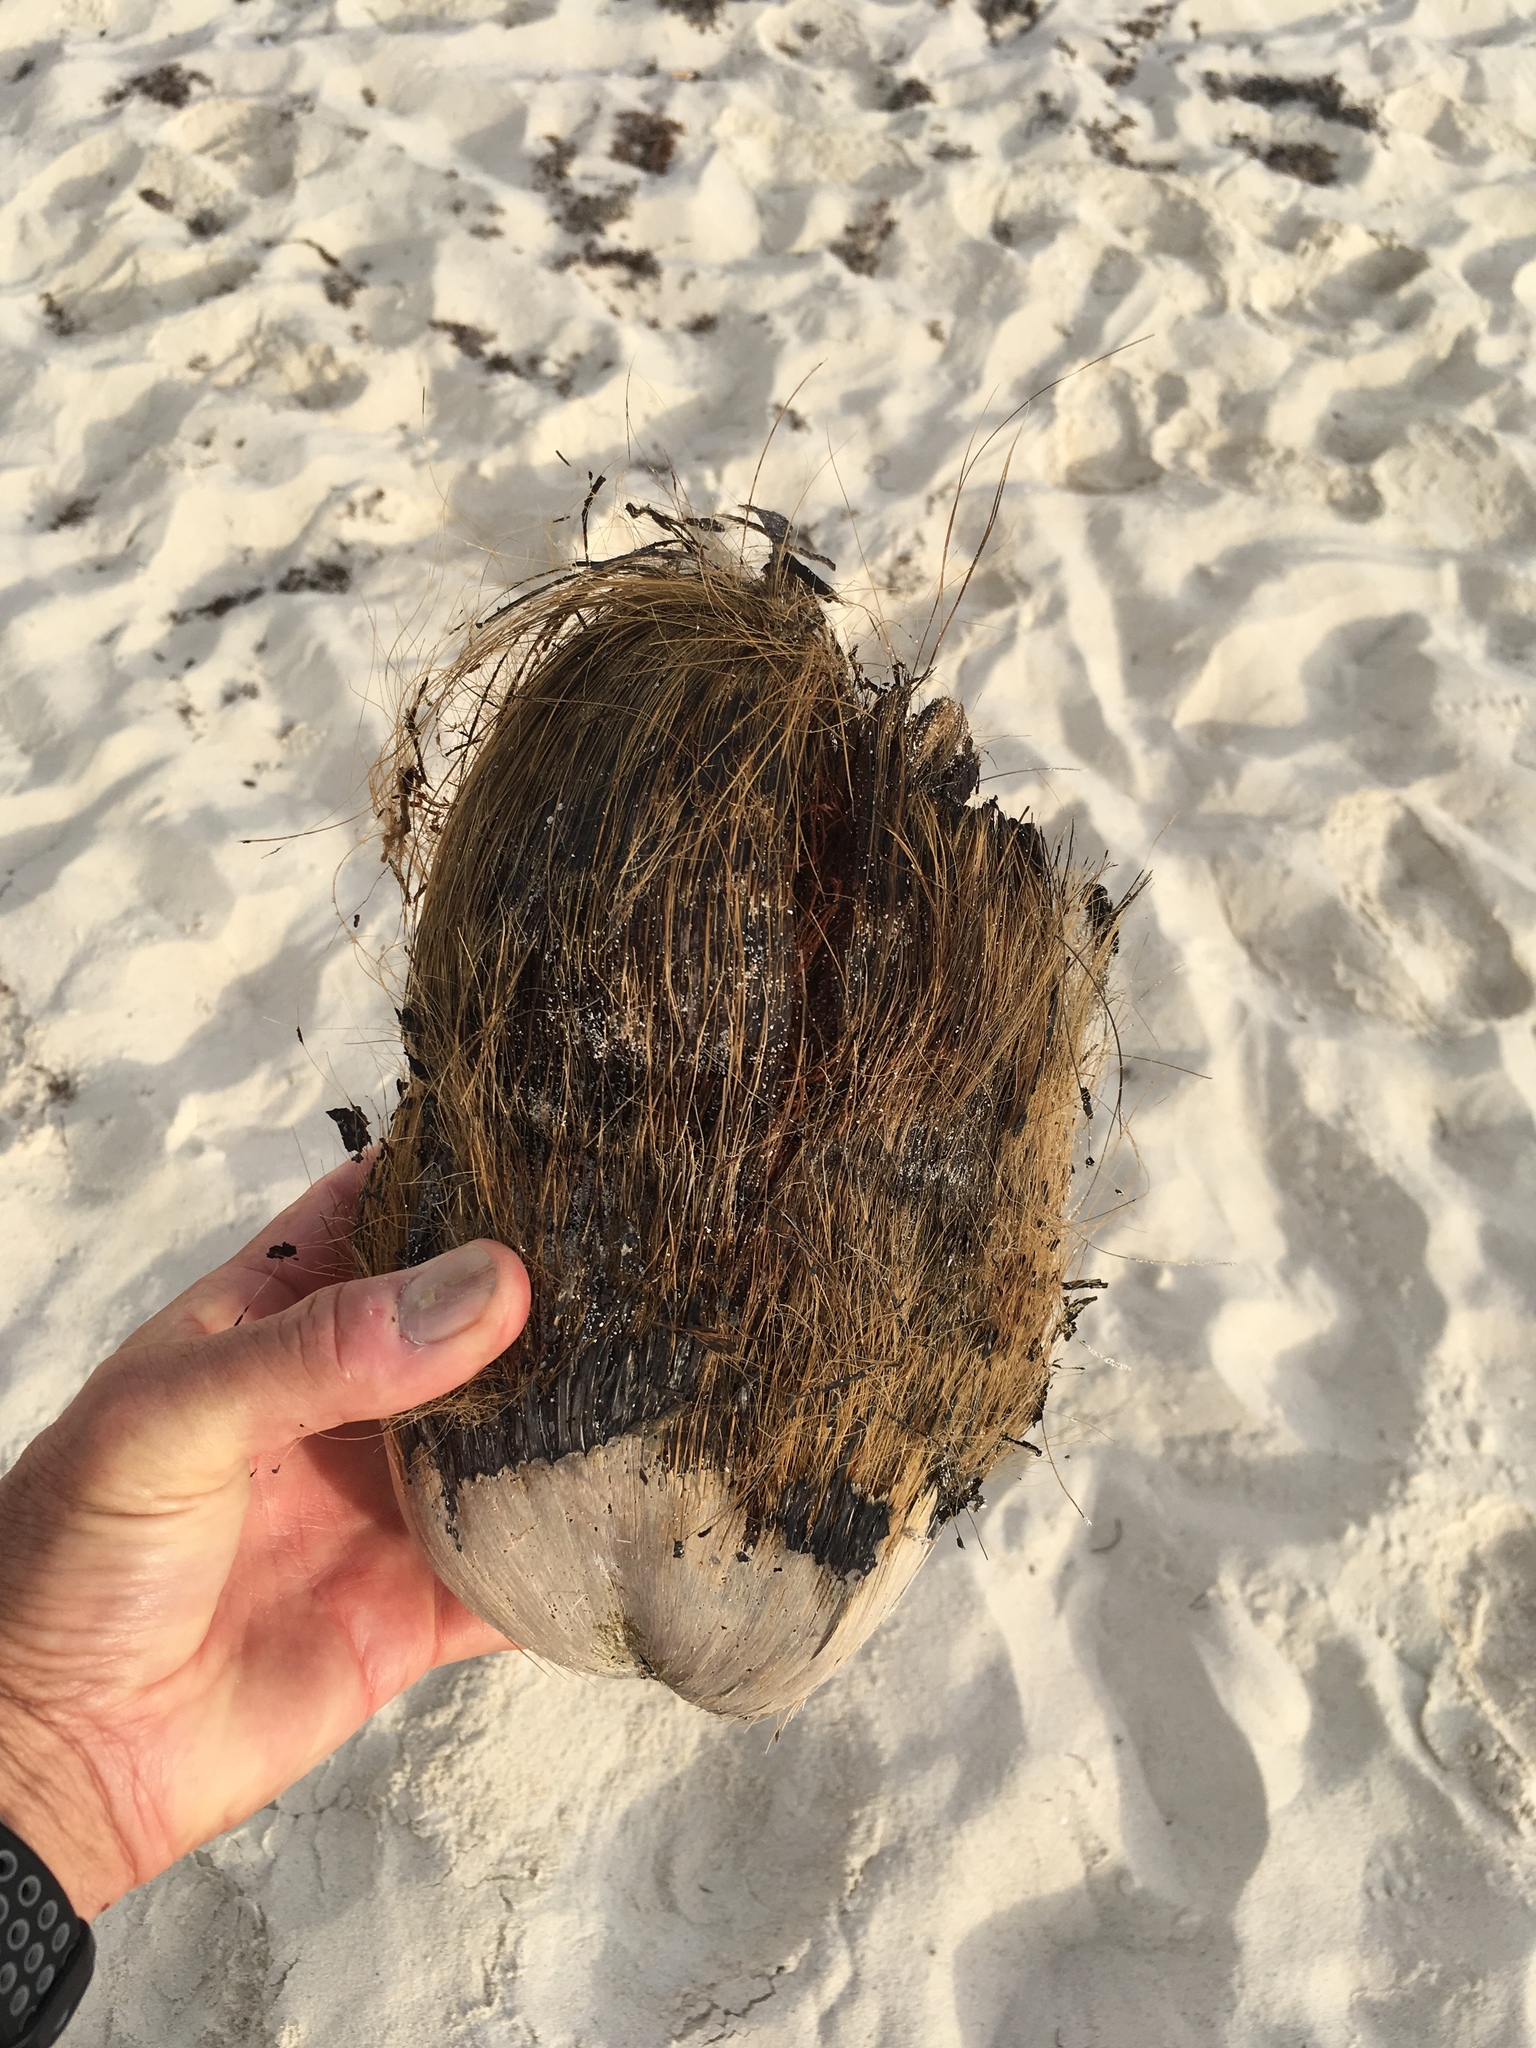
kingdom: Plantae
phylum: Tracheophyta
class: Liliopsida
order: Arecales
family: Arecaceae
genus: Cocos
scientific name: Cocos nucifera
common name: Coconut palm
